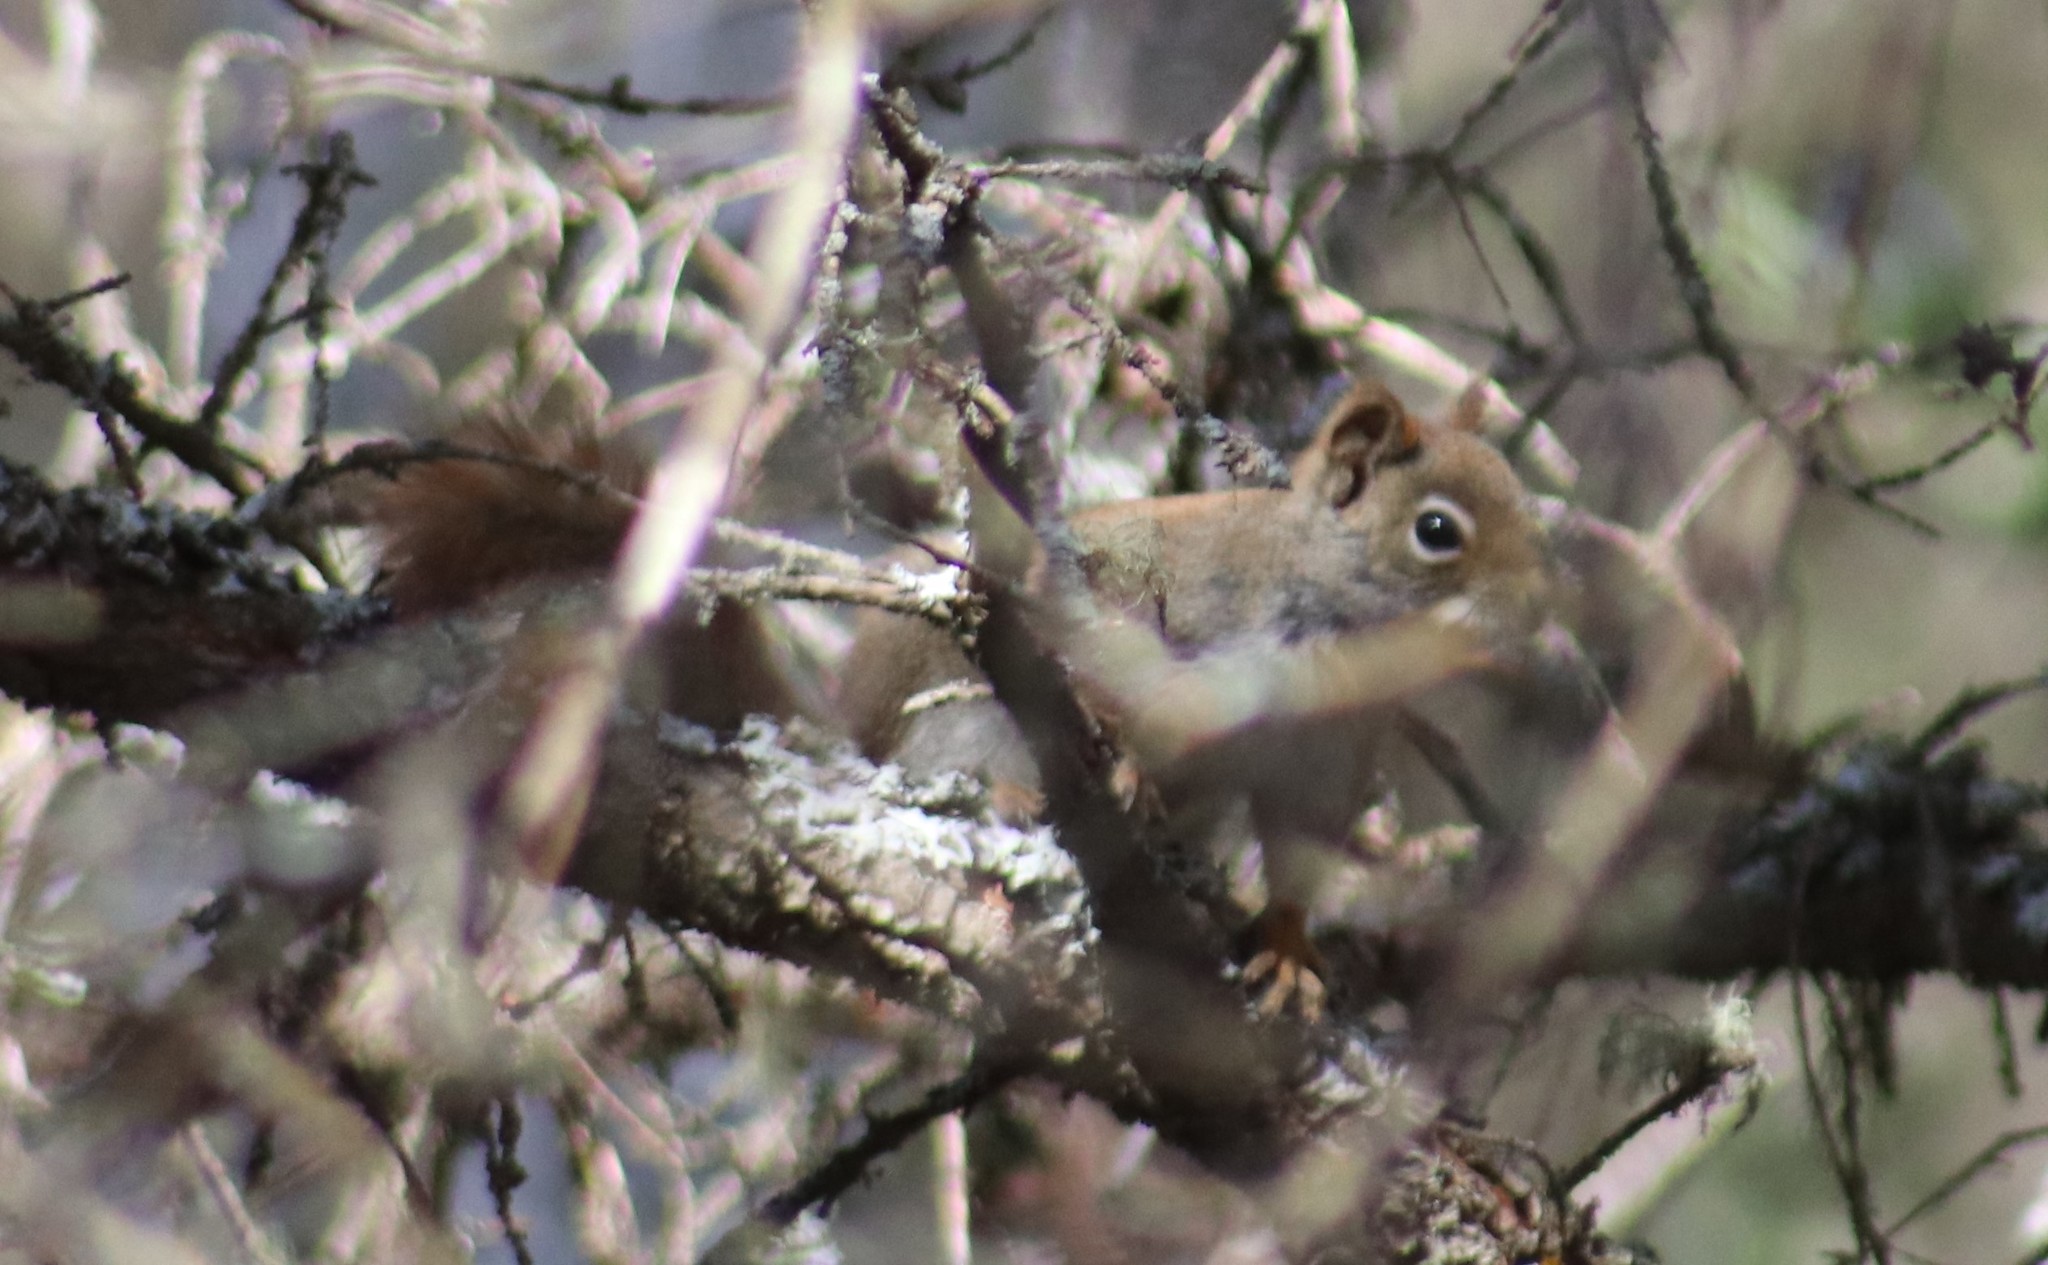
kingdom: Animalia
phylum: Chordata
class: Mammalia
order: Rodentia
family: Sciuridae
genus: Tamiasciurus
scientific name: Tamiasciurus hudsonicus
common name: Red squirrel
